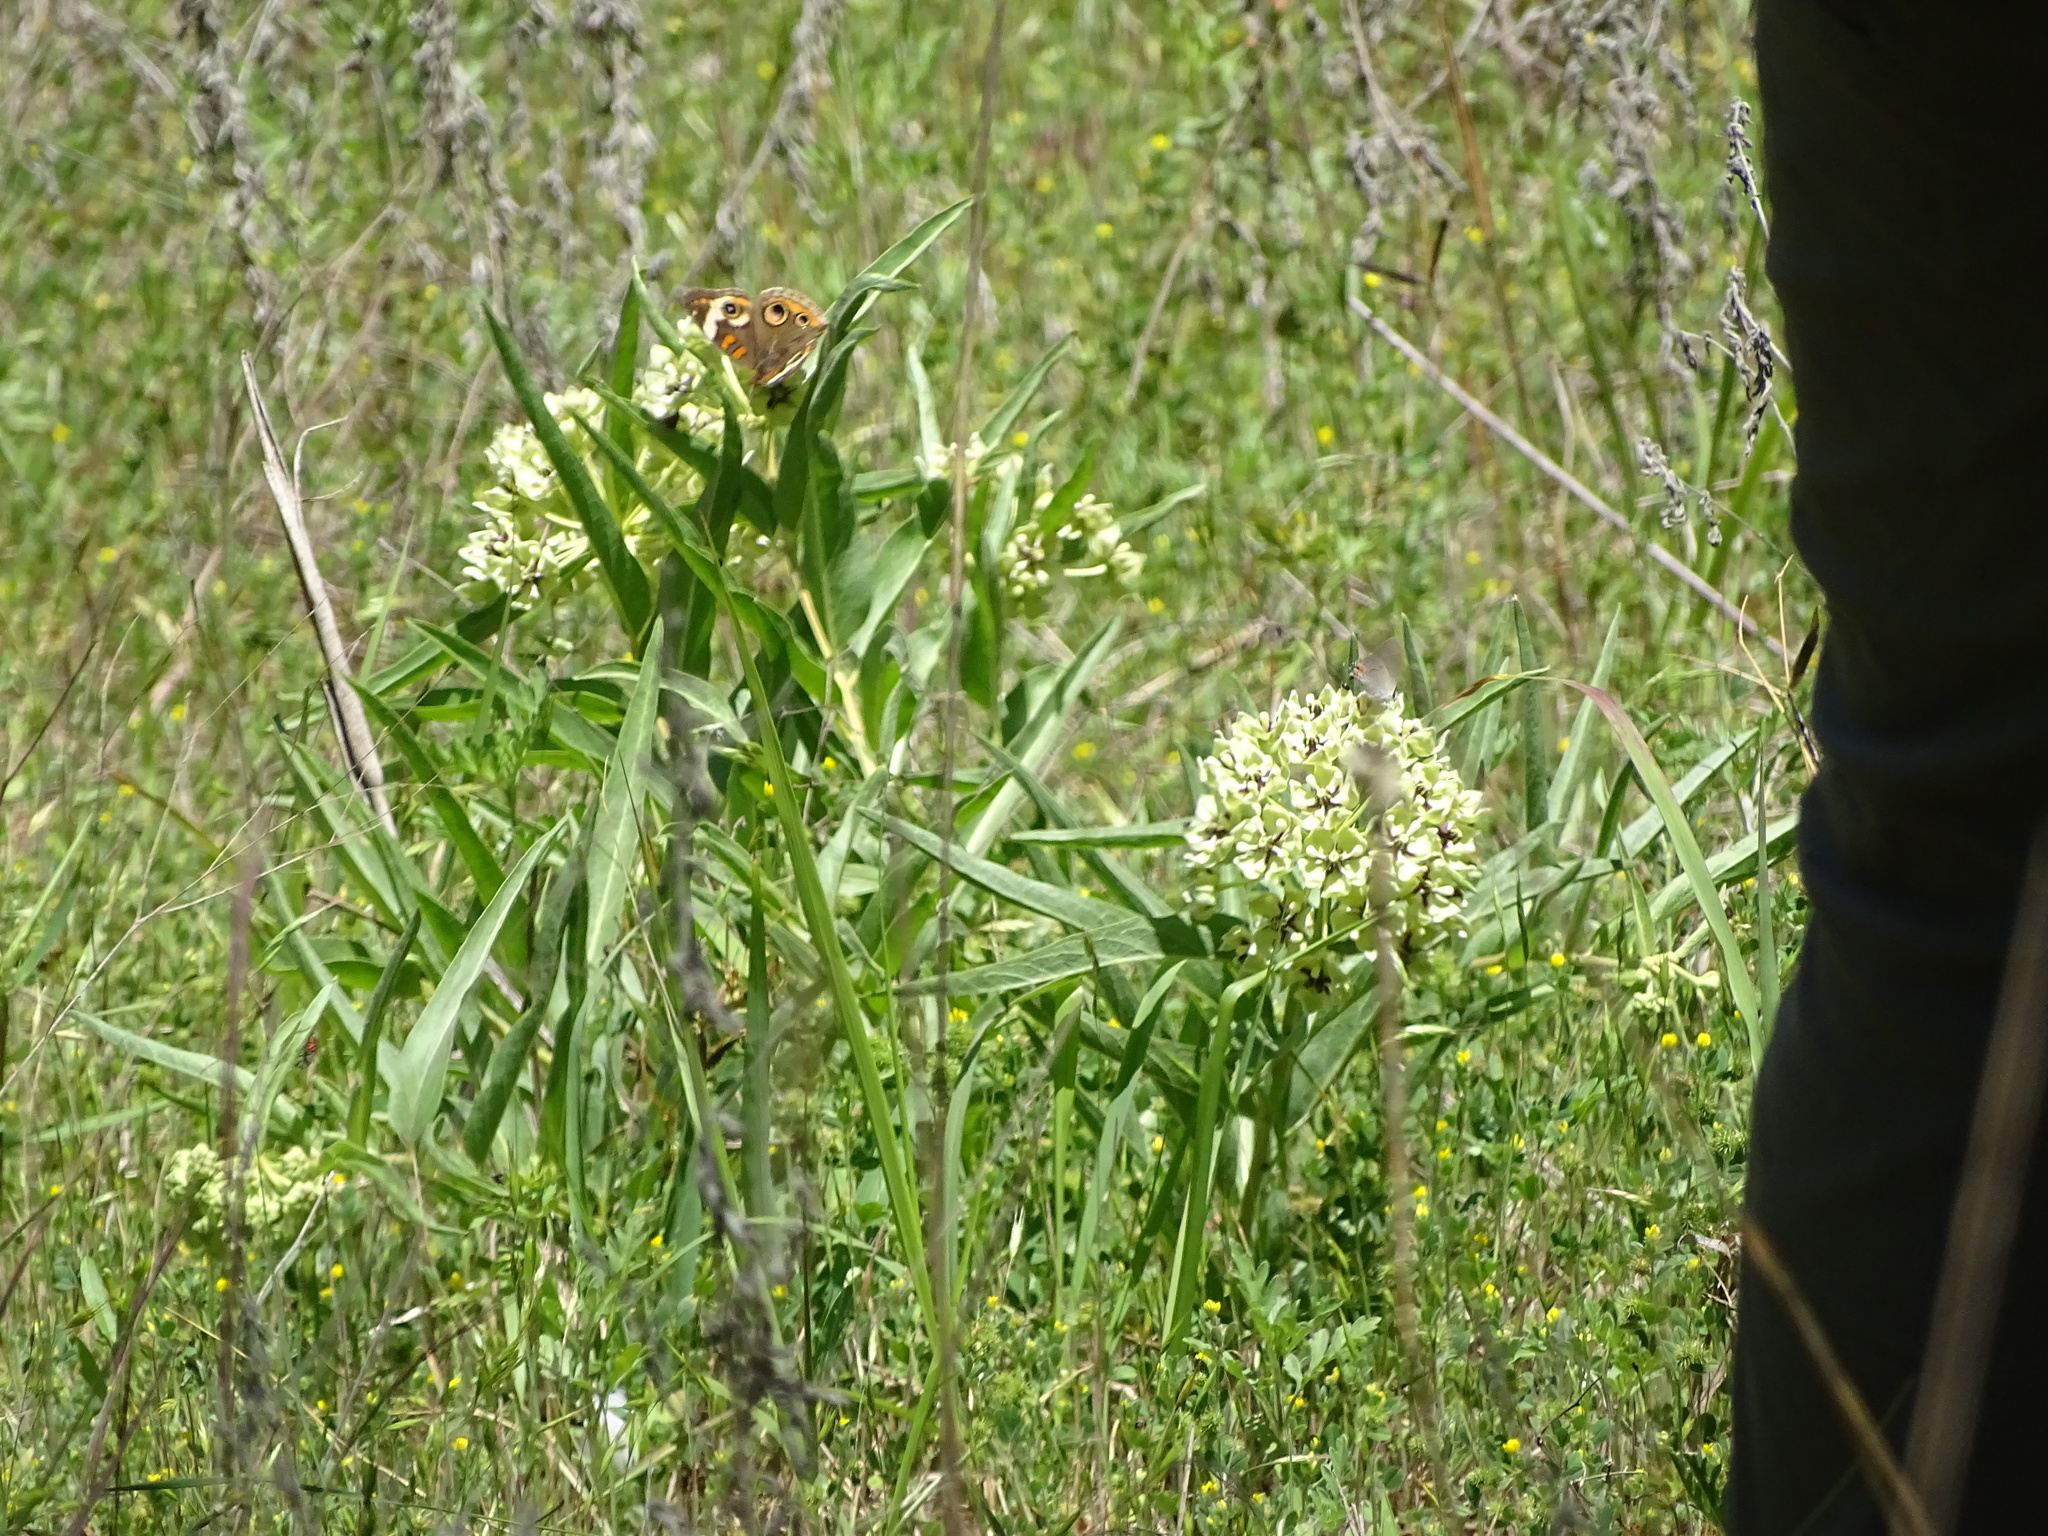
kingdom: Plantae
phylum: Tracheophyta
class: Magnoliopsida
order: Gentianales
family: Apocynaceae
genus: Asclepias
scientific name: Asclepias asperula
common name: Antelope horns
